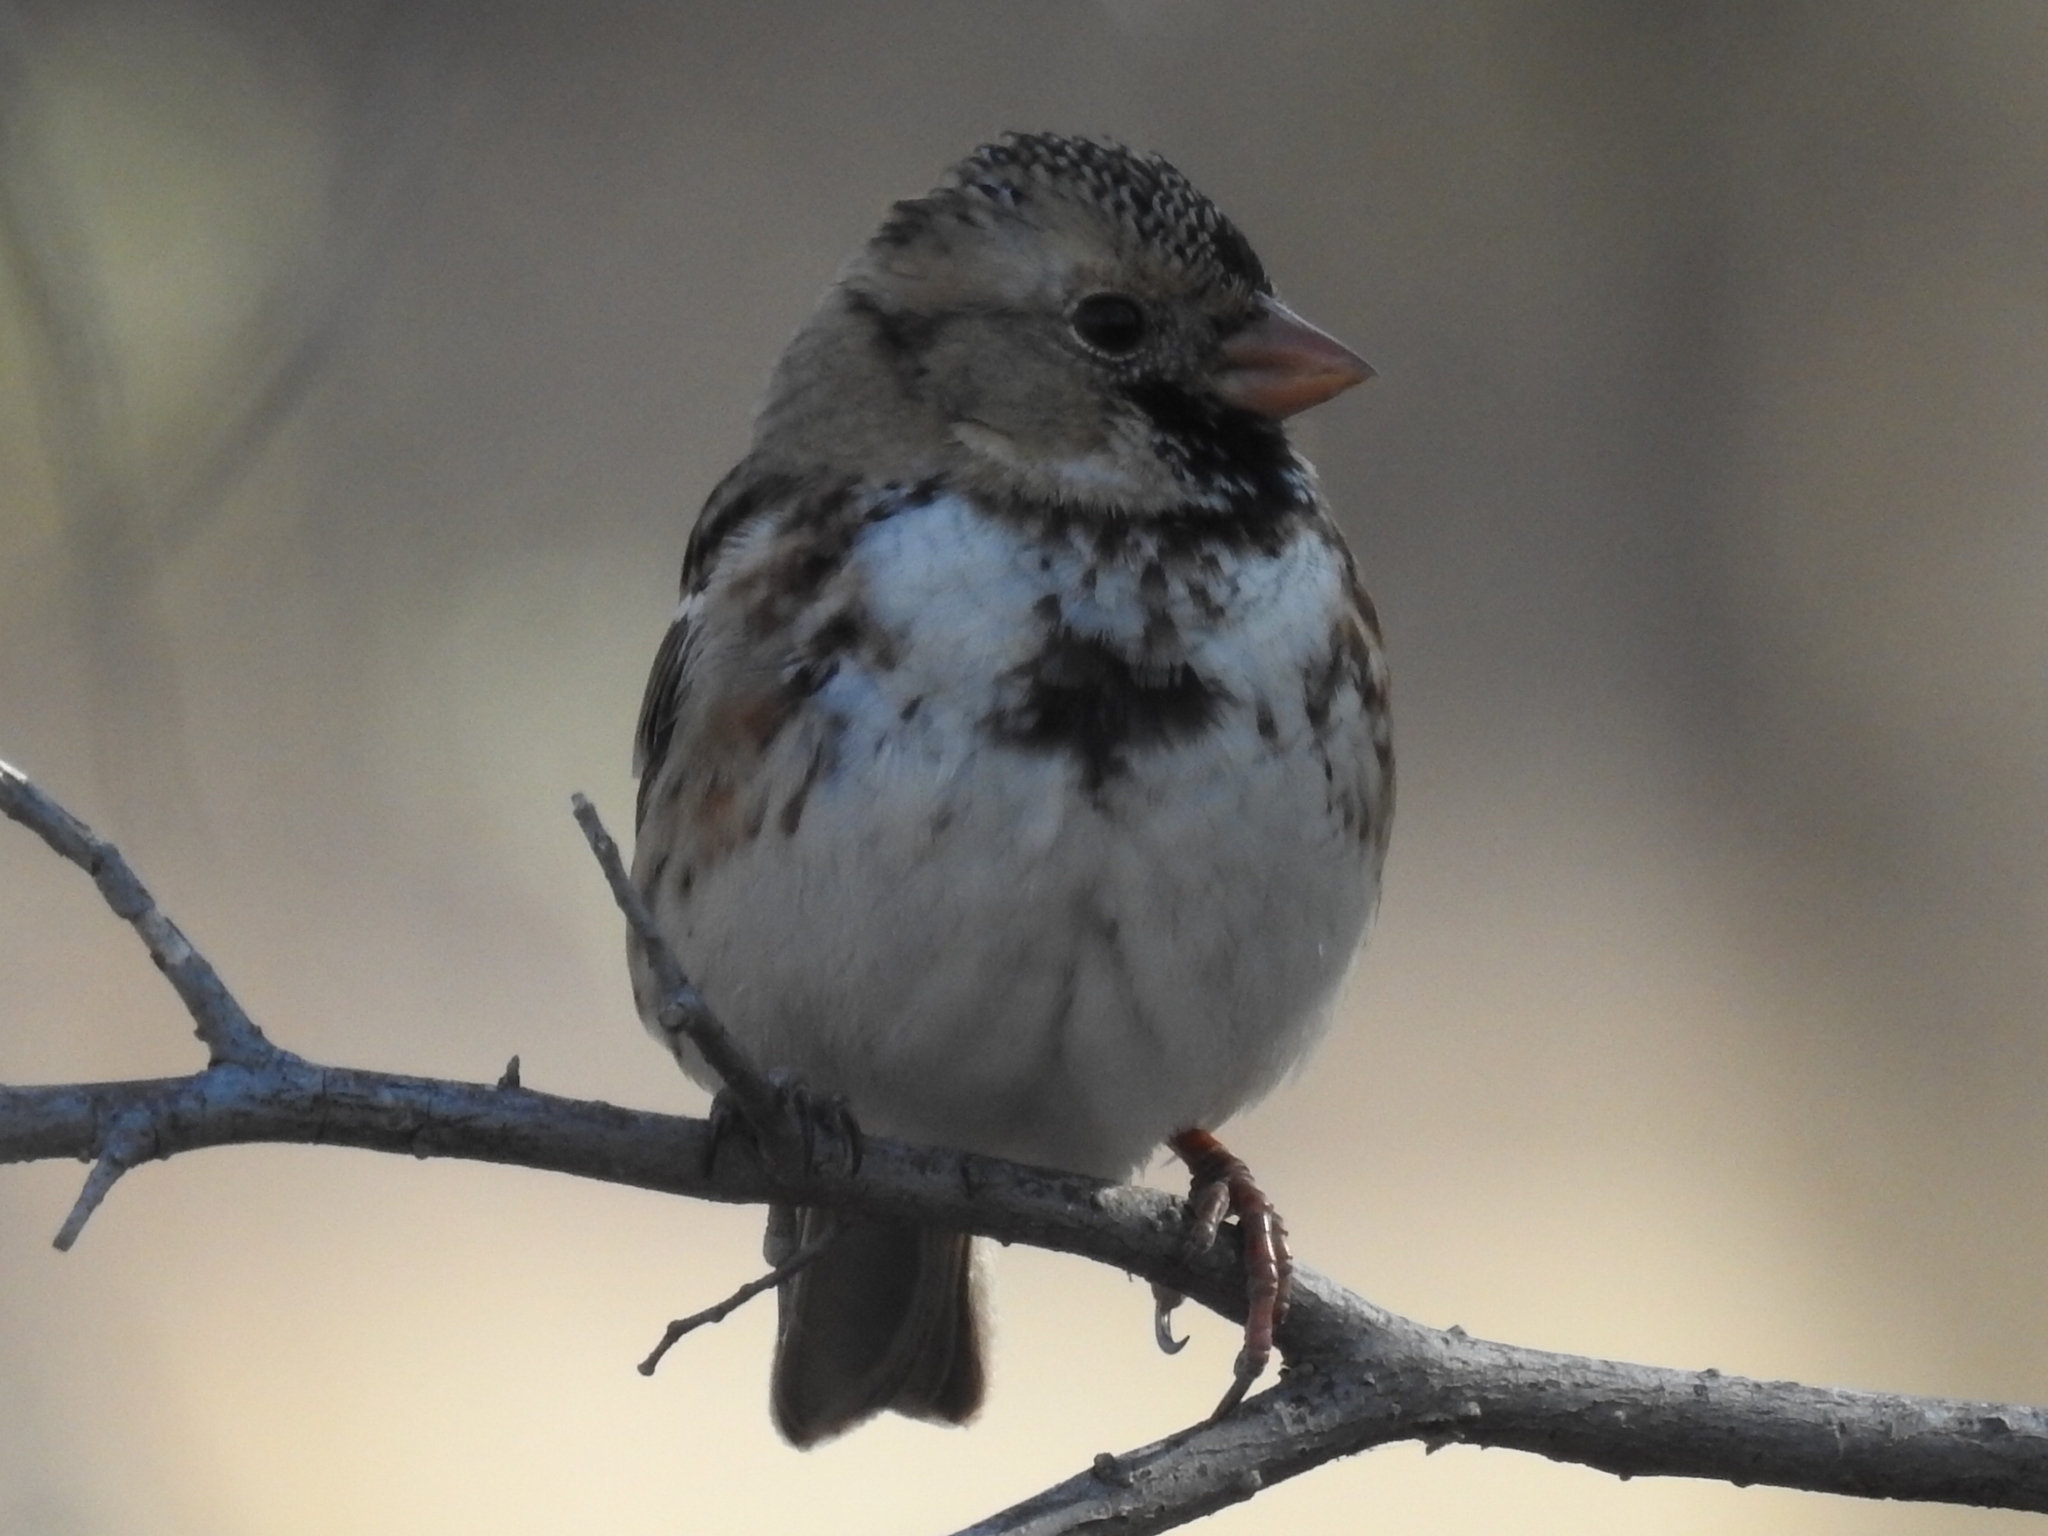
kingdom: Animalia
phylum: Chordata
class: Aves
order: Passeriformes
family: Passerellidae
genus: Zonotrichia
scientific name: Zonotrichia querula
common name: Harris's sparrow
